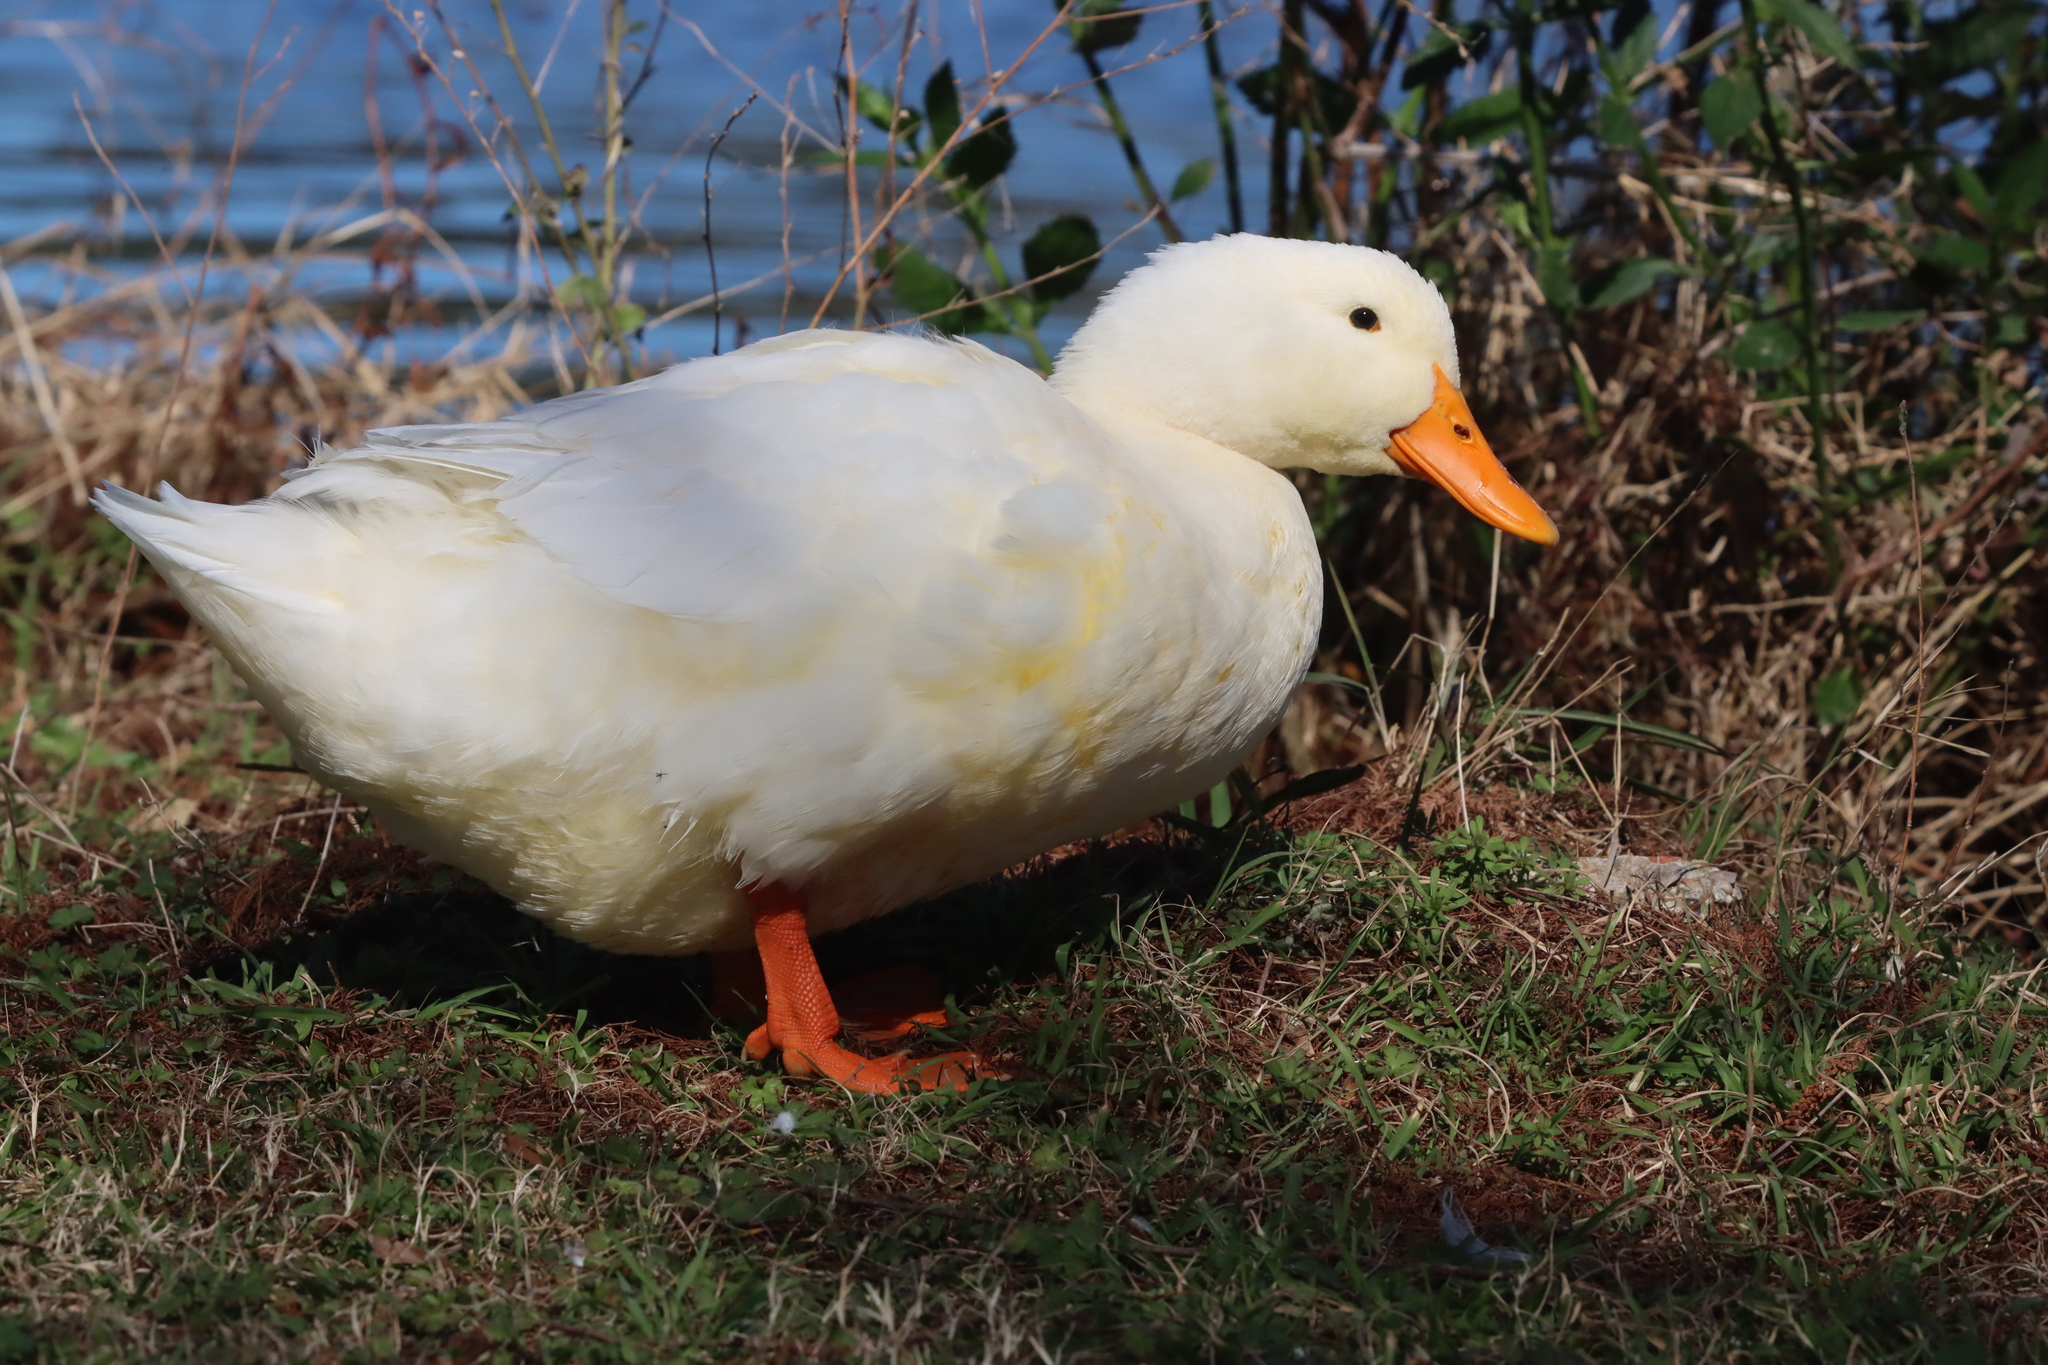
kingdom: Animalia
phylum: Chordata
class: Aves
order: Anseriformes
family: Anatidae
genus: Anas
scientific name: Anas platyrhynchos
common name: Mallard
